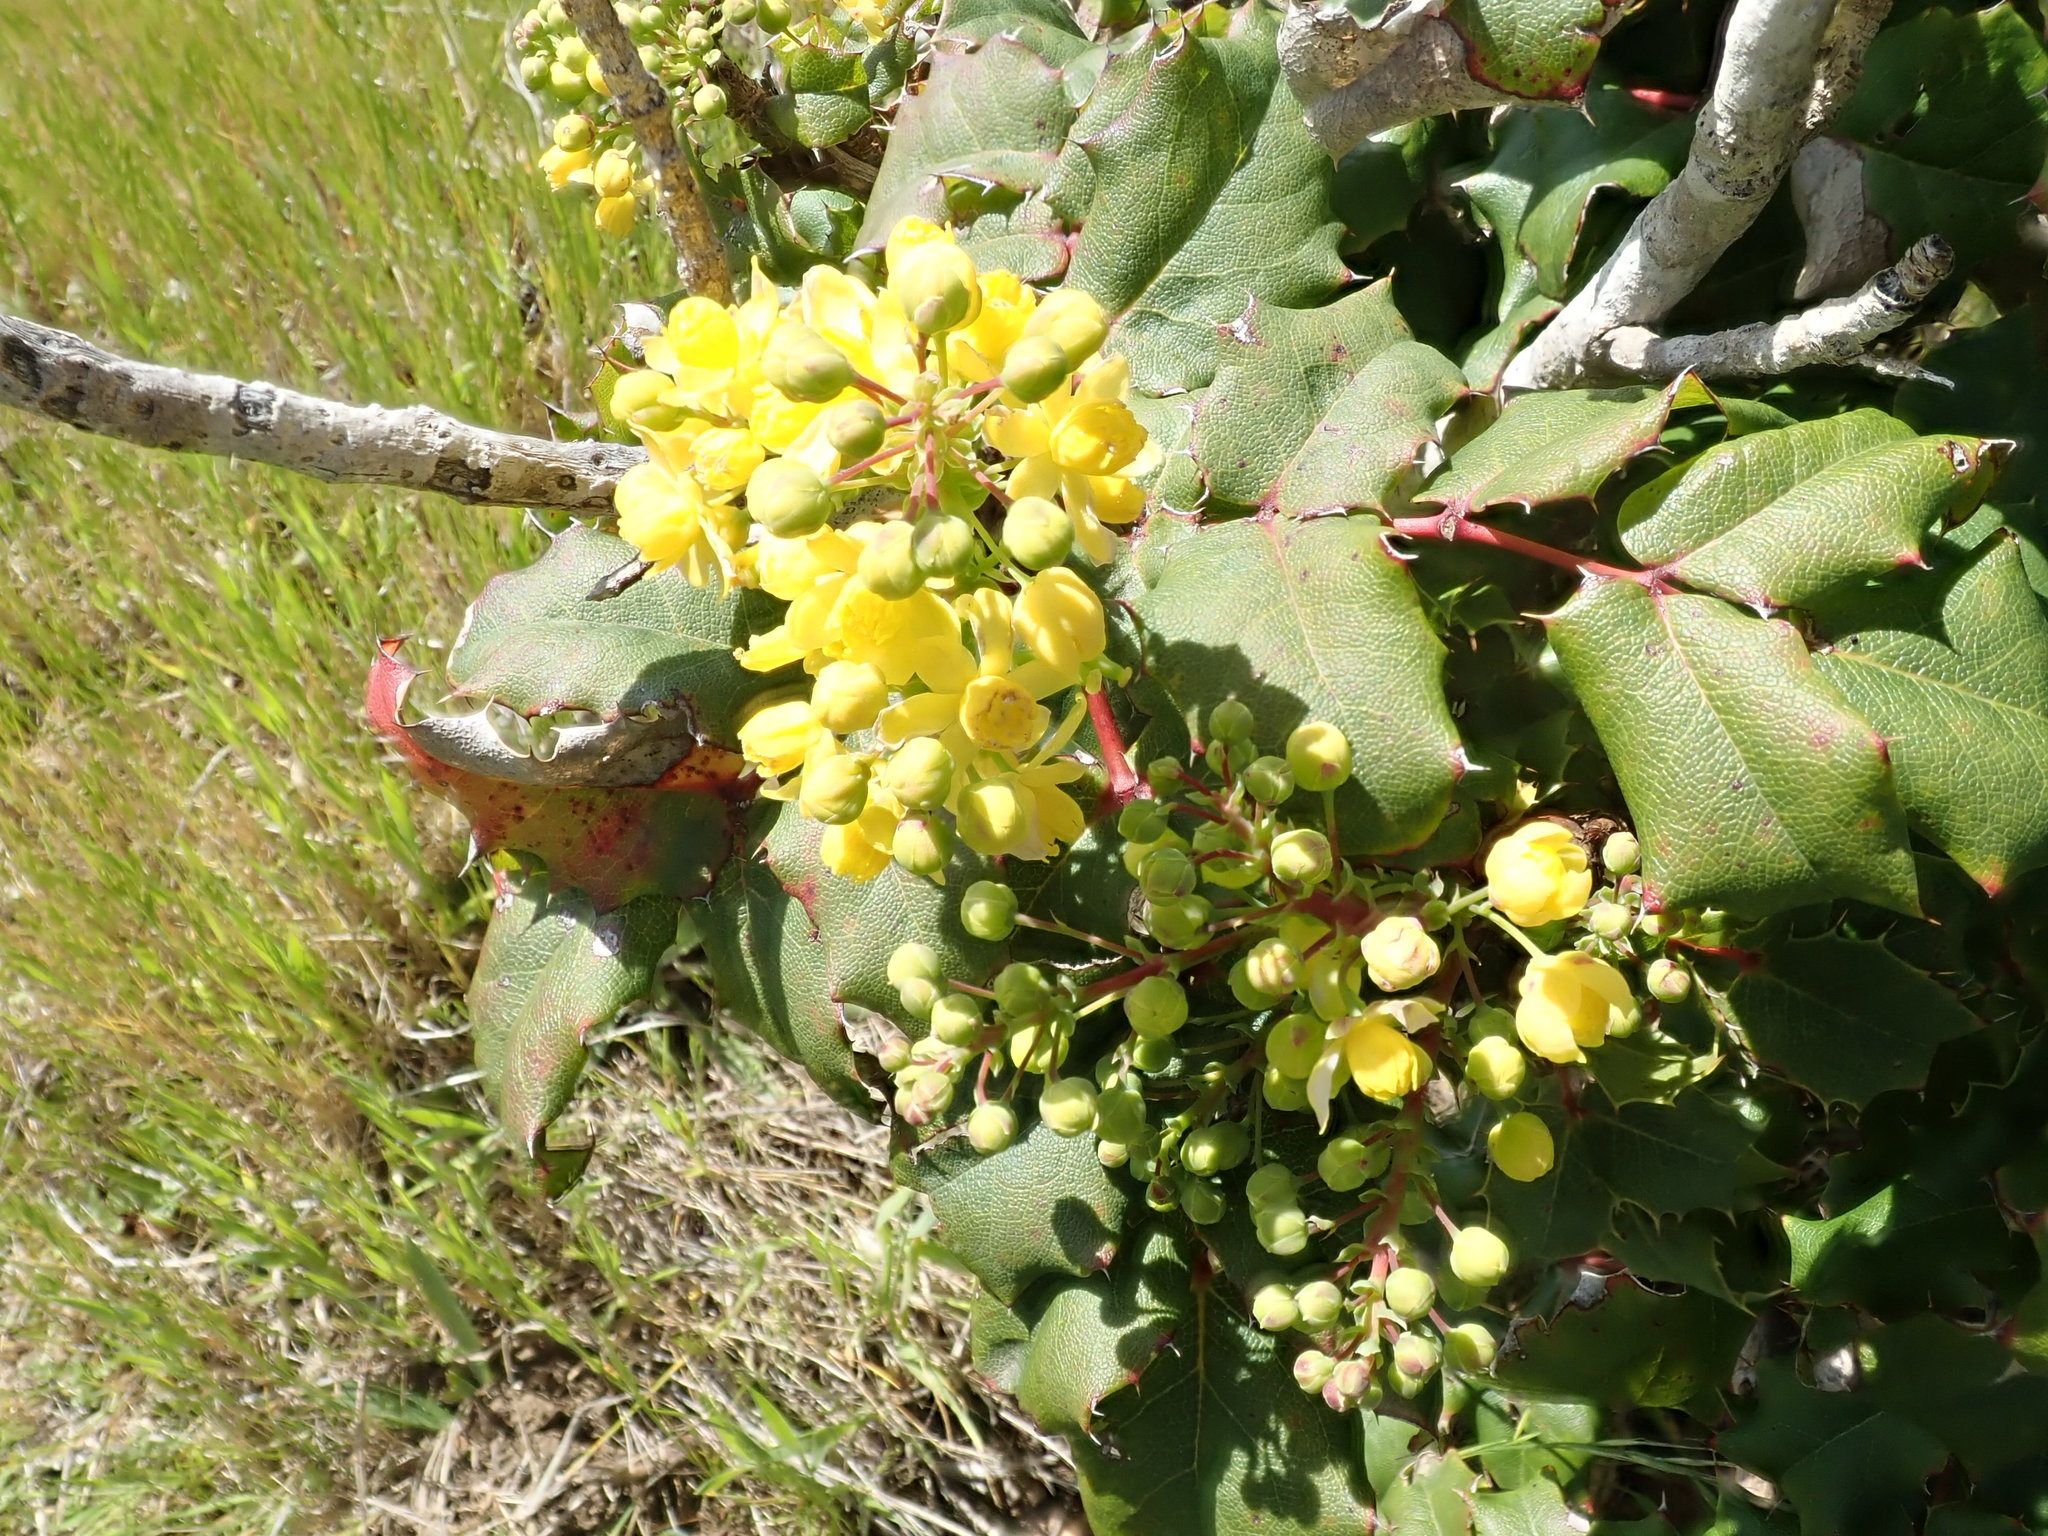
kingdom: Plantae
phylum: Tracheophyta
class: Magnoliopsida
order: Ranunculales
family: Berberidaceae
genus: Mahonia
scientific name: Mahonia
